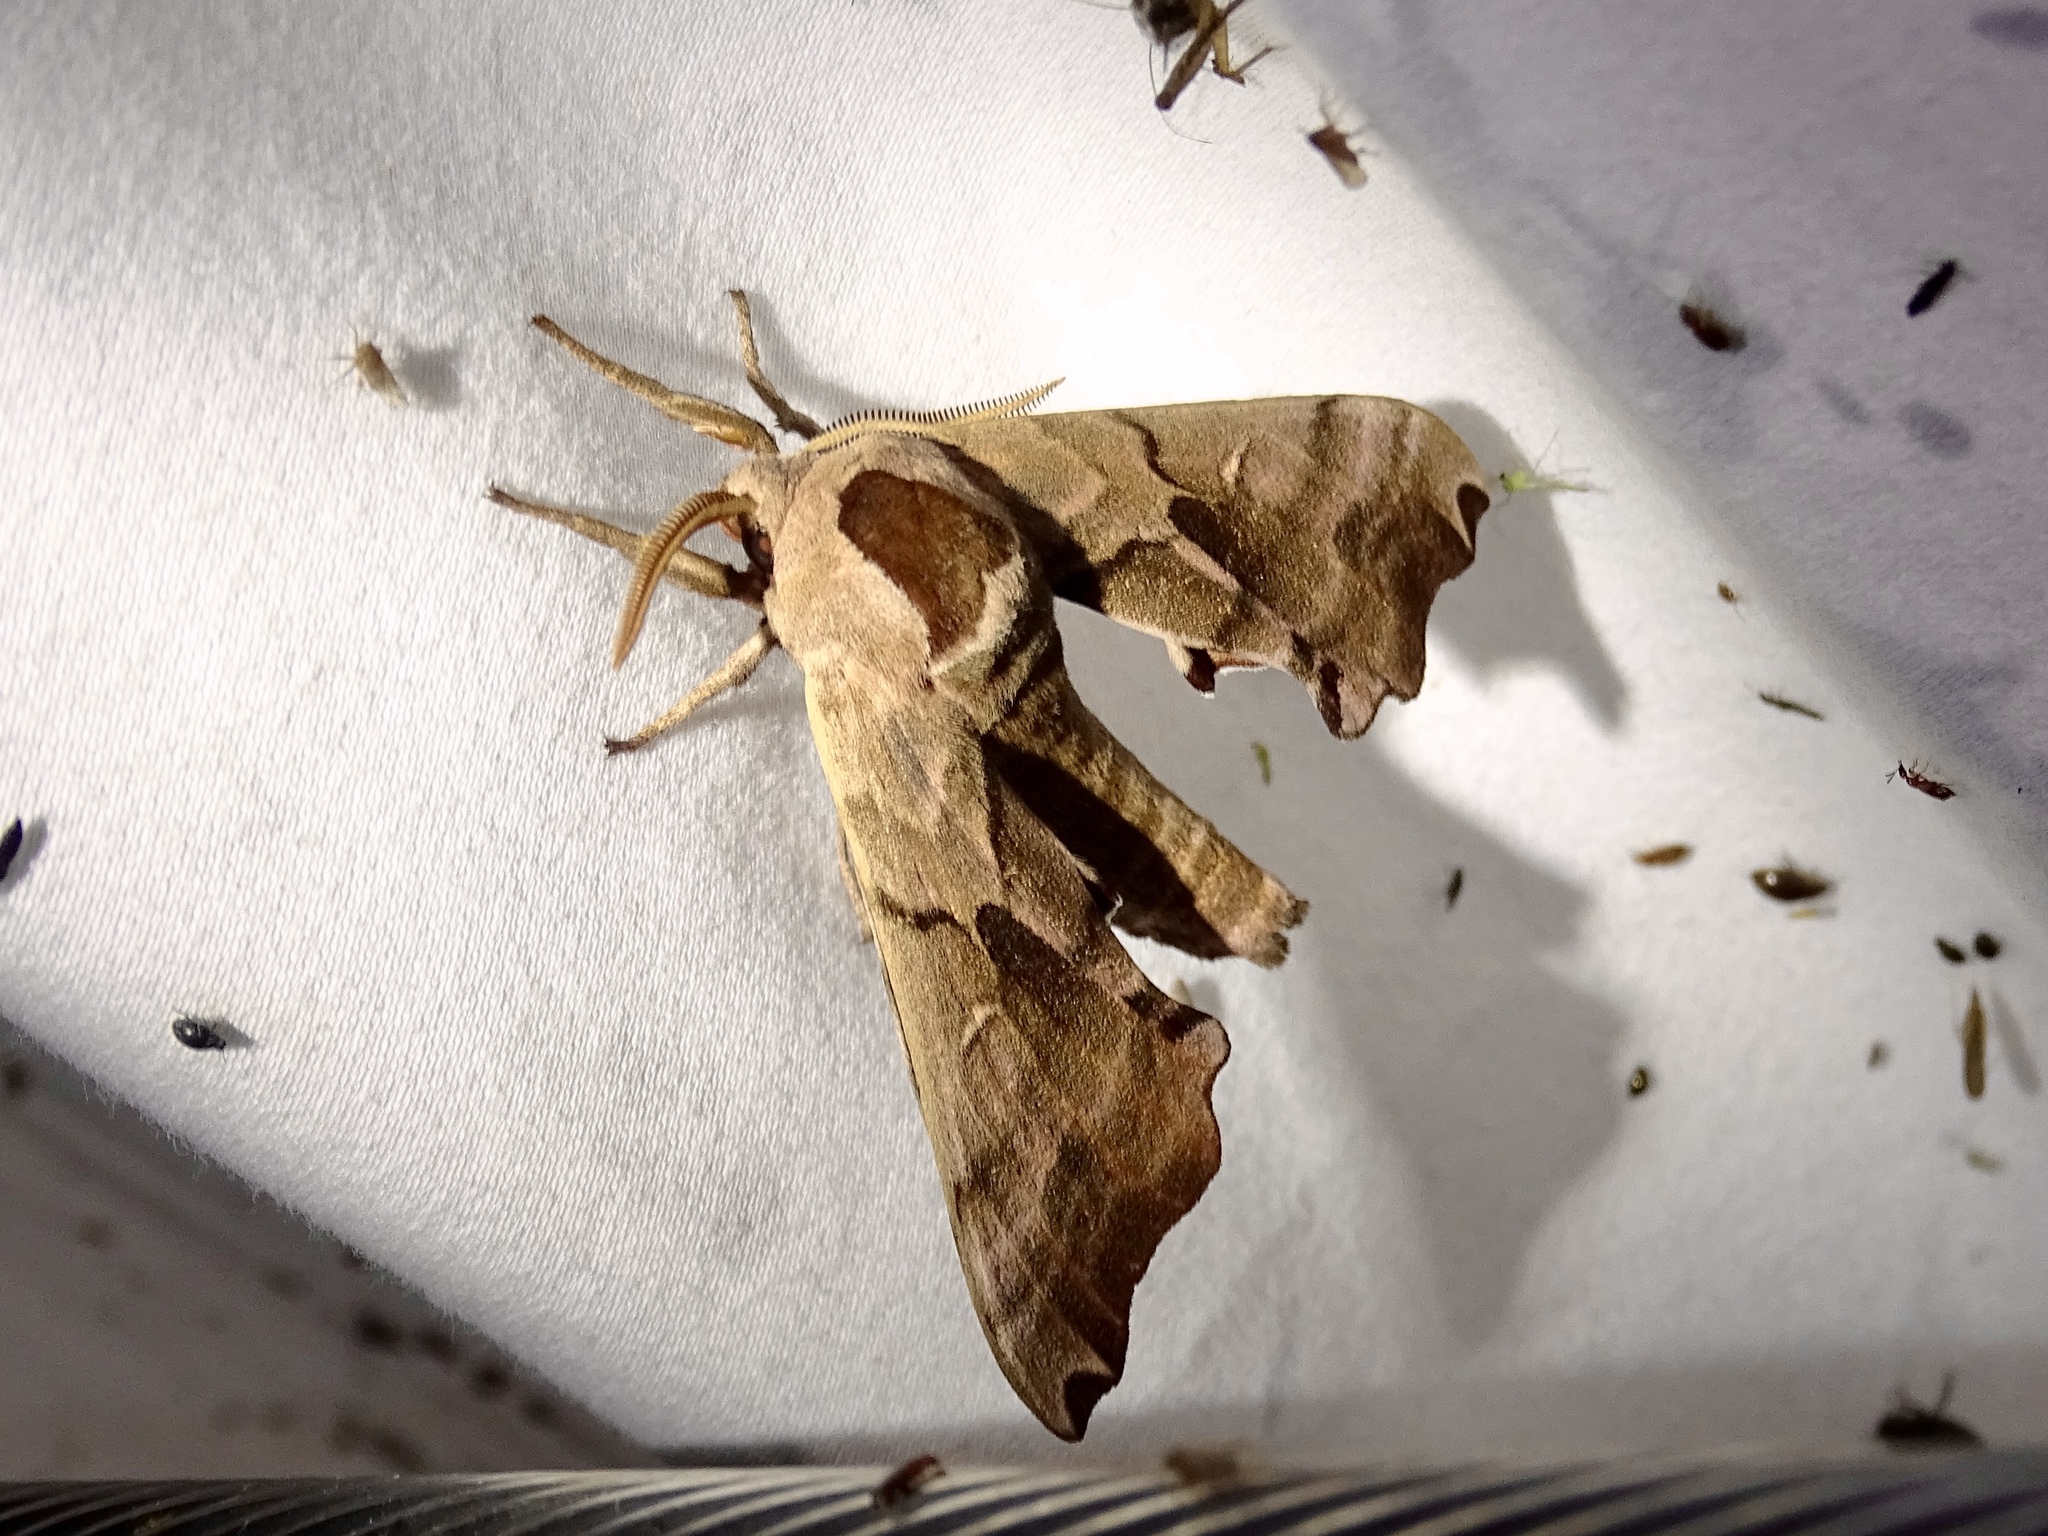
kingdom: Animalia
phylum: Arthropoda
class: Insecta
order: Lepidoptera
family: Sphingidae
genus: Smerinthus
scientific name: Smerinthus jamaicensis
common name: Twin spotted sphinx
